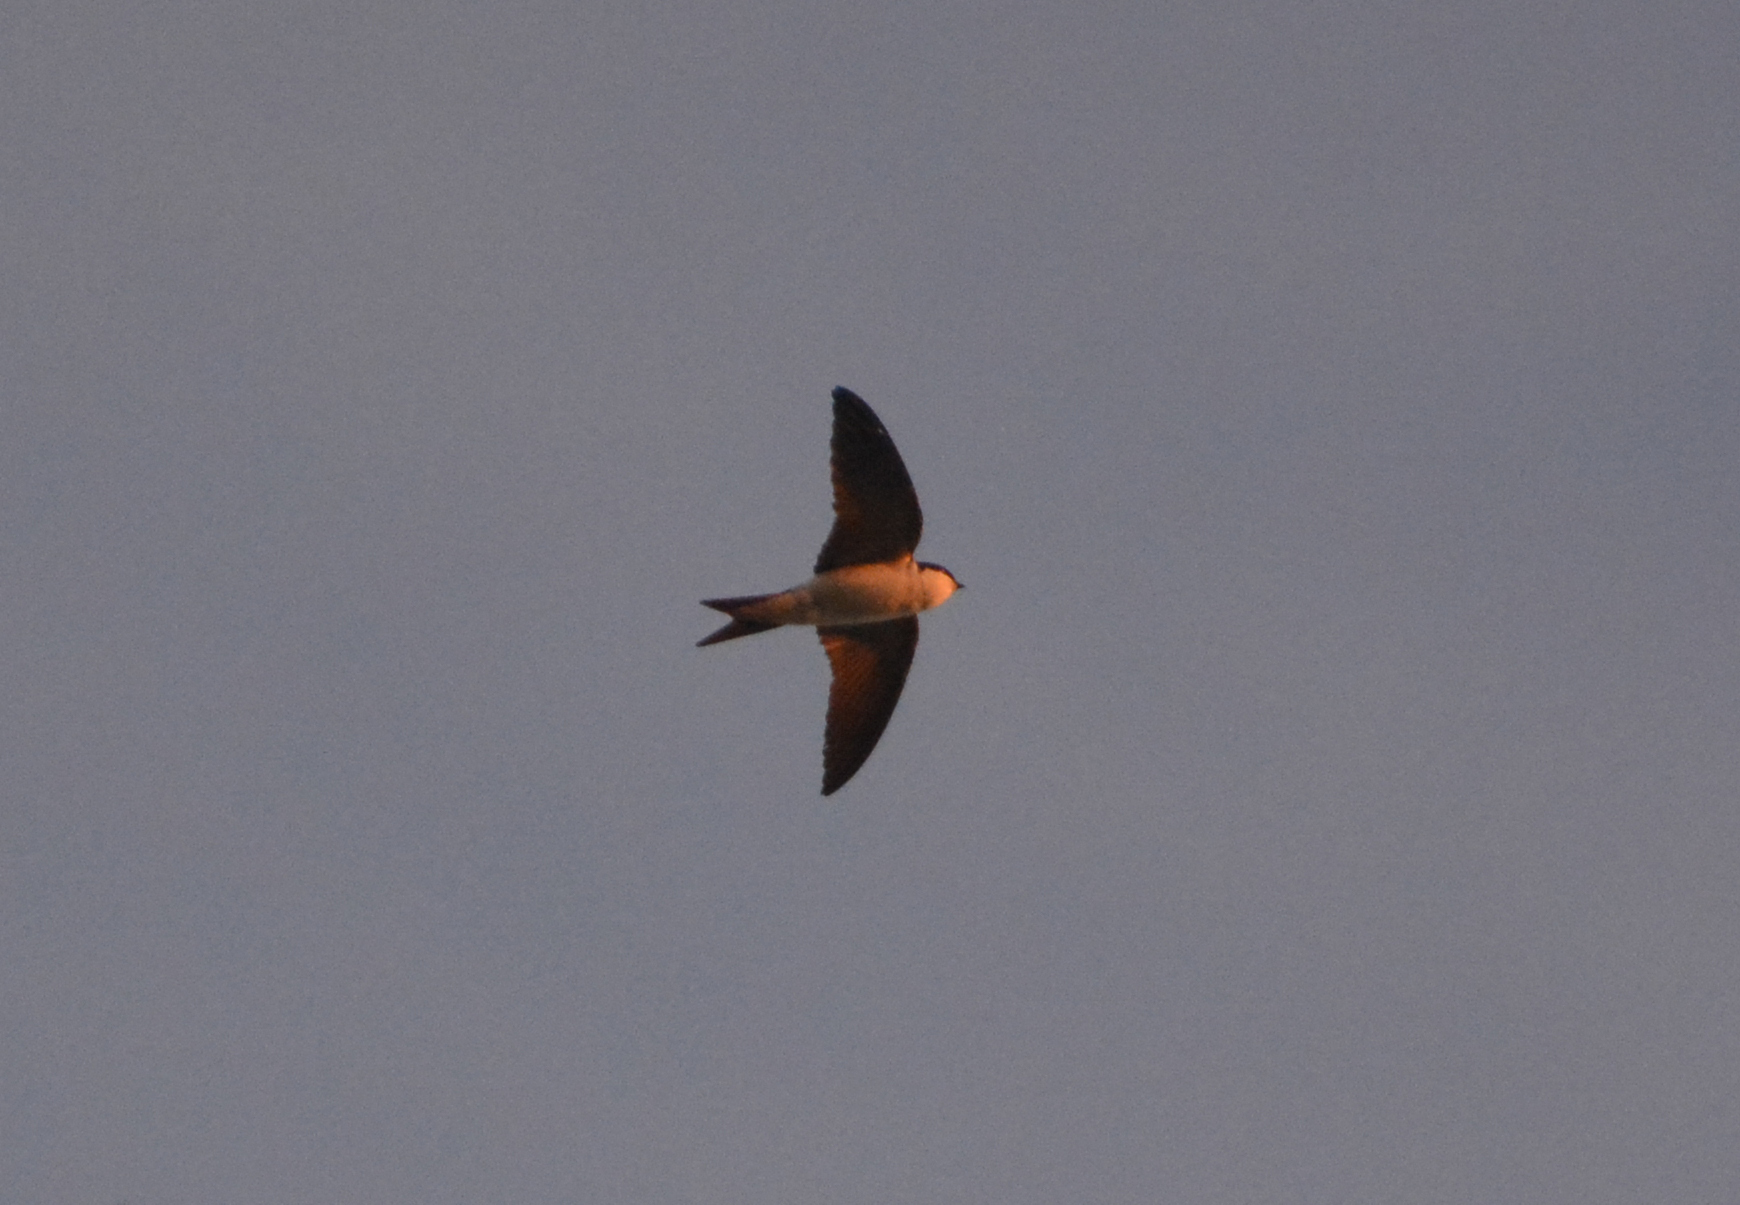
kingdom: Animalia
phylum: Chordata
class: Aves
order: Passeriformes
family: Hirundinidae
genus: Delichon
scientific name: Delichon urbicum
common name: Common house martin
